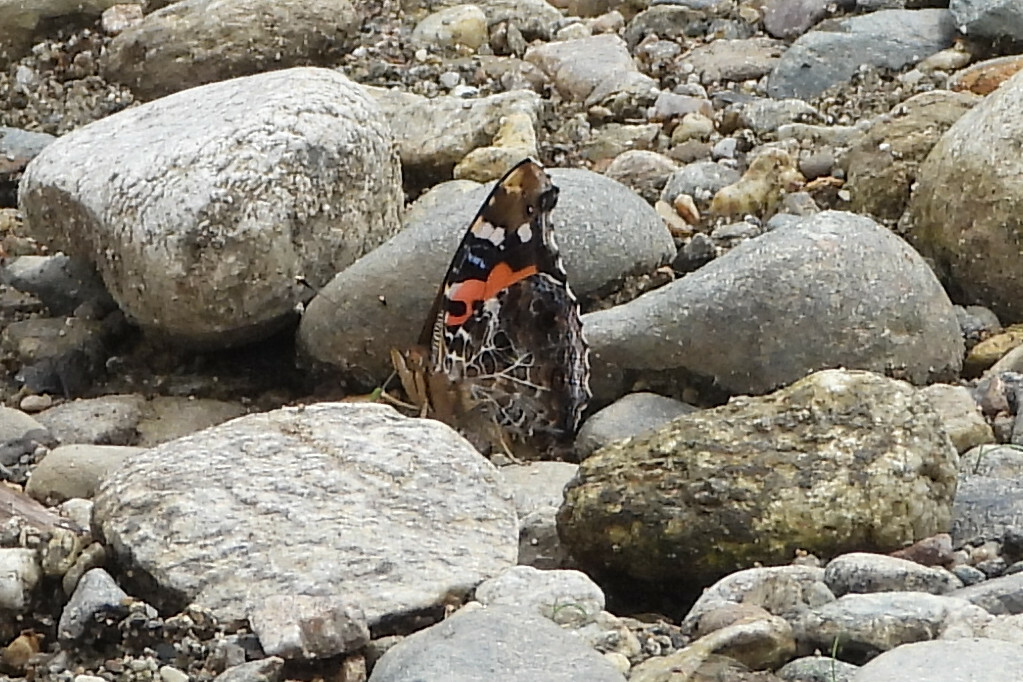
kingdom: Animalia
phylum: Arthropoda
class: Insecta
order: Lepidoptera
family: Nymphalidae
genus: Vanessa
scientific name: Vanessa indica
